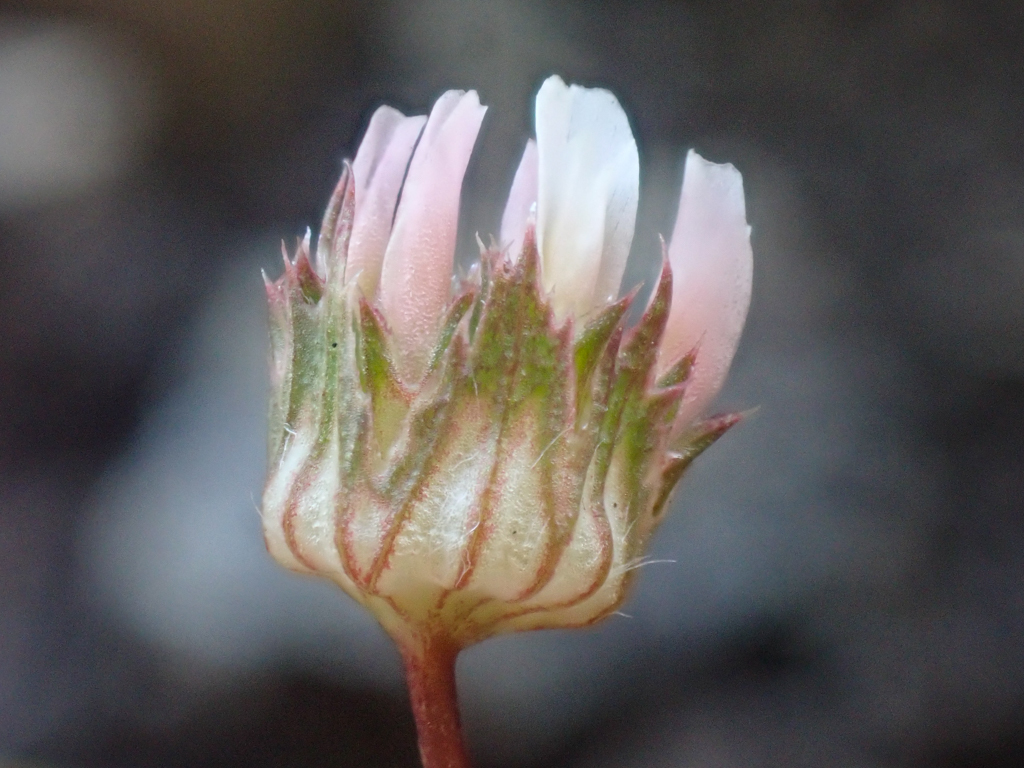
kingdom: Plantae
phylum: Tracheophyta
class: Magnoliopsida
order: Fabales
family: Fabaceae
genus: Trifolium
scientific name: Trifolium microdon
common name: Thimble clover
